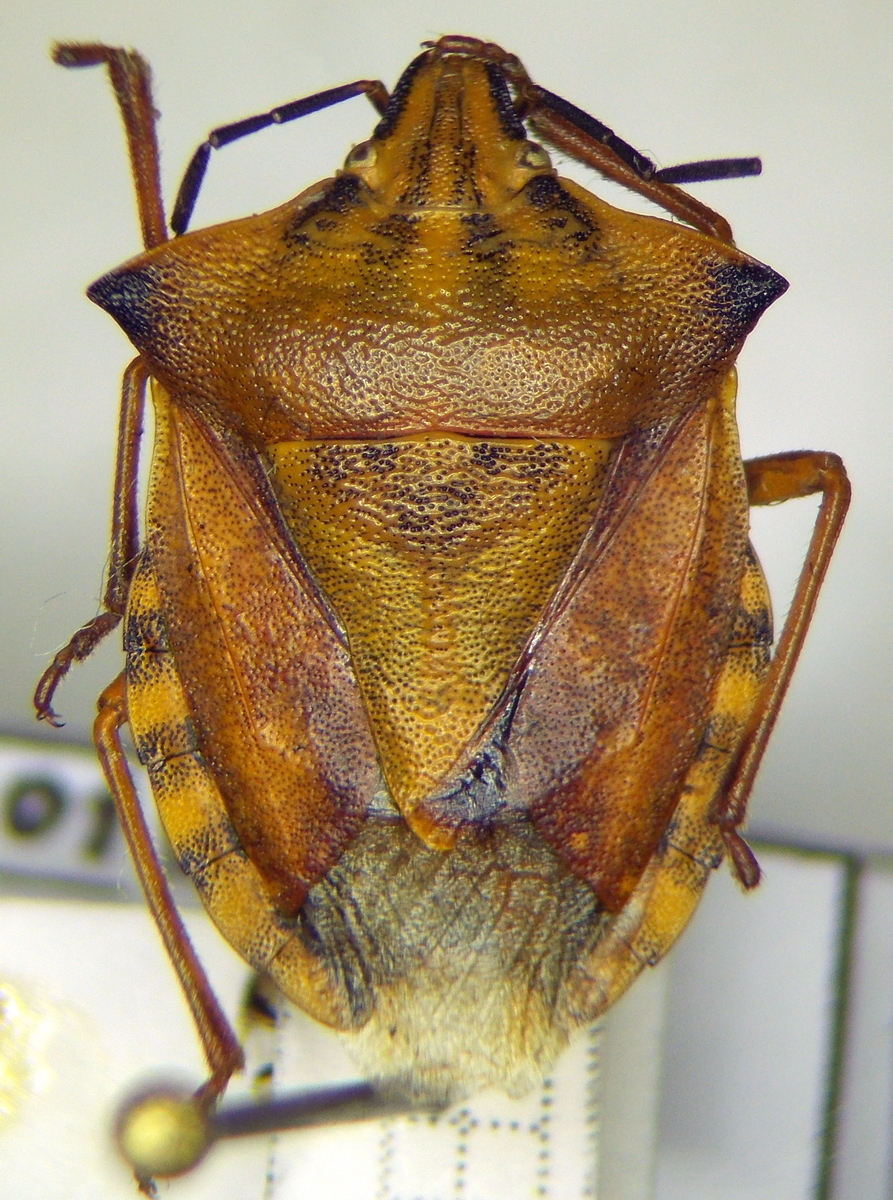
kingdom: Animalia
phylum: Arthropoda
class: Insecta
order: Hemiptera
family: Pentatomidae
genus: Carpocoris
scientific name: Carpocoris fuscispinus
